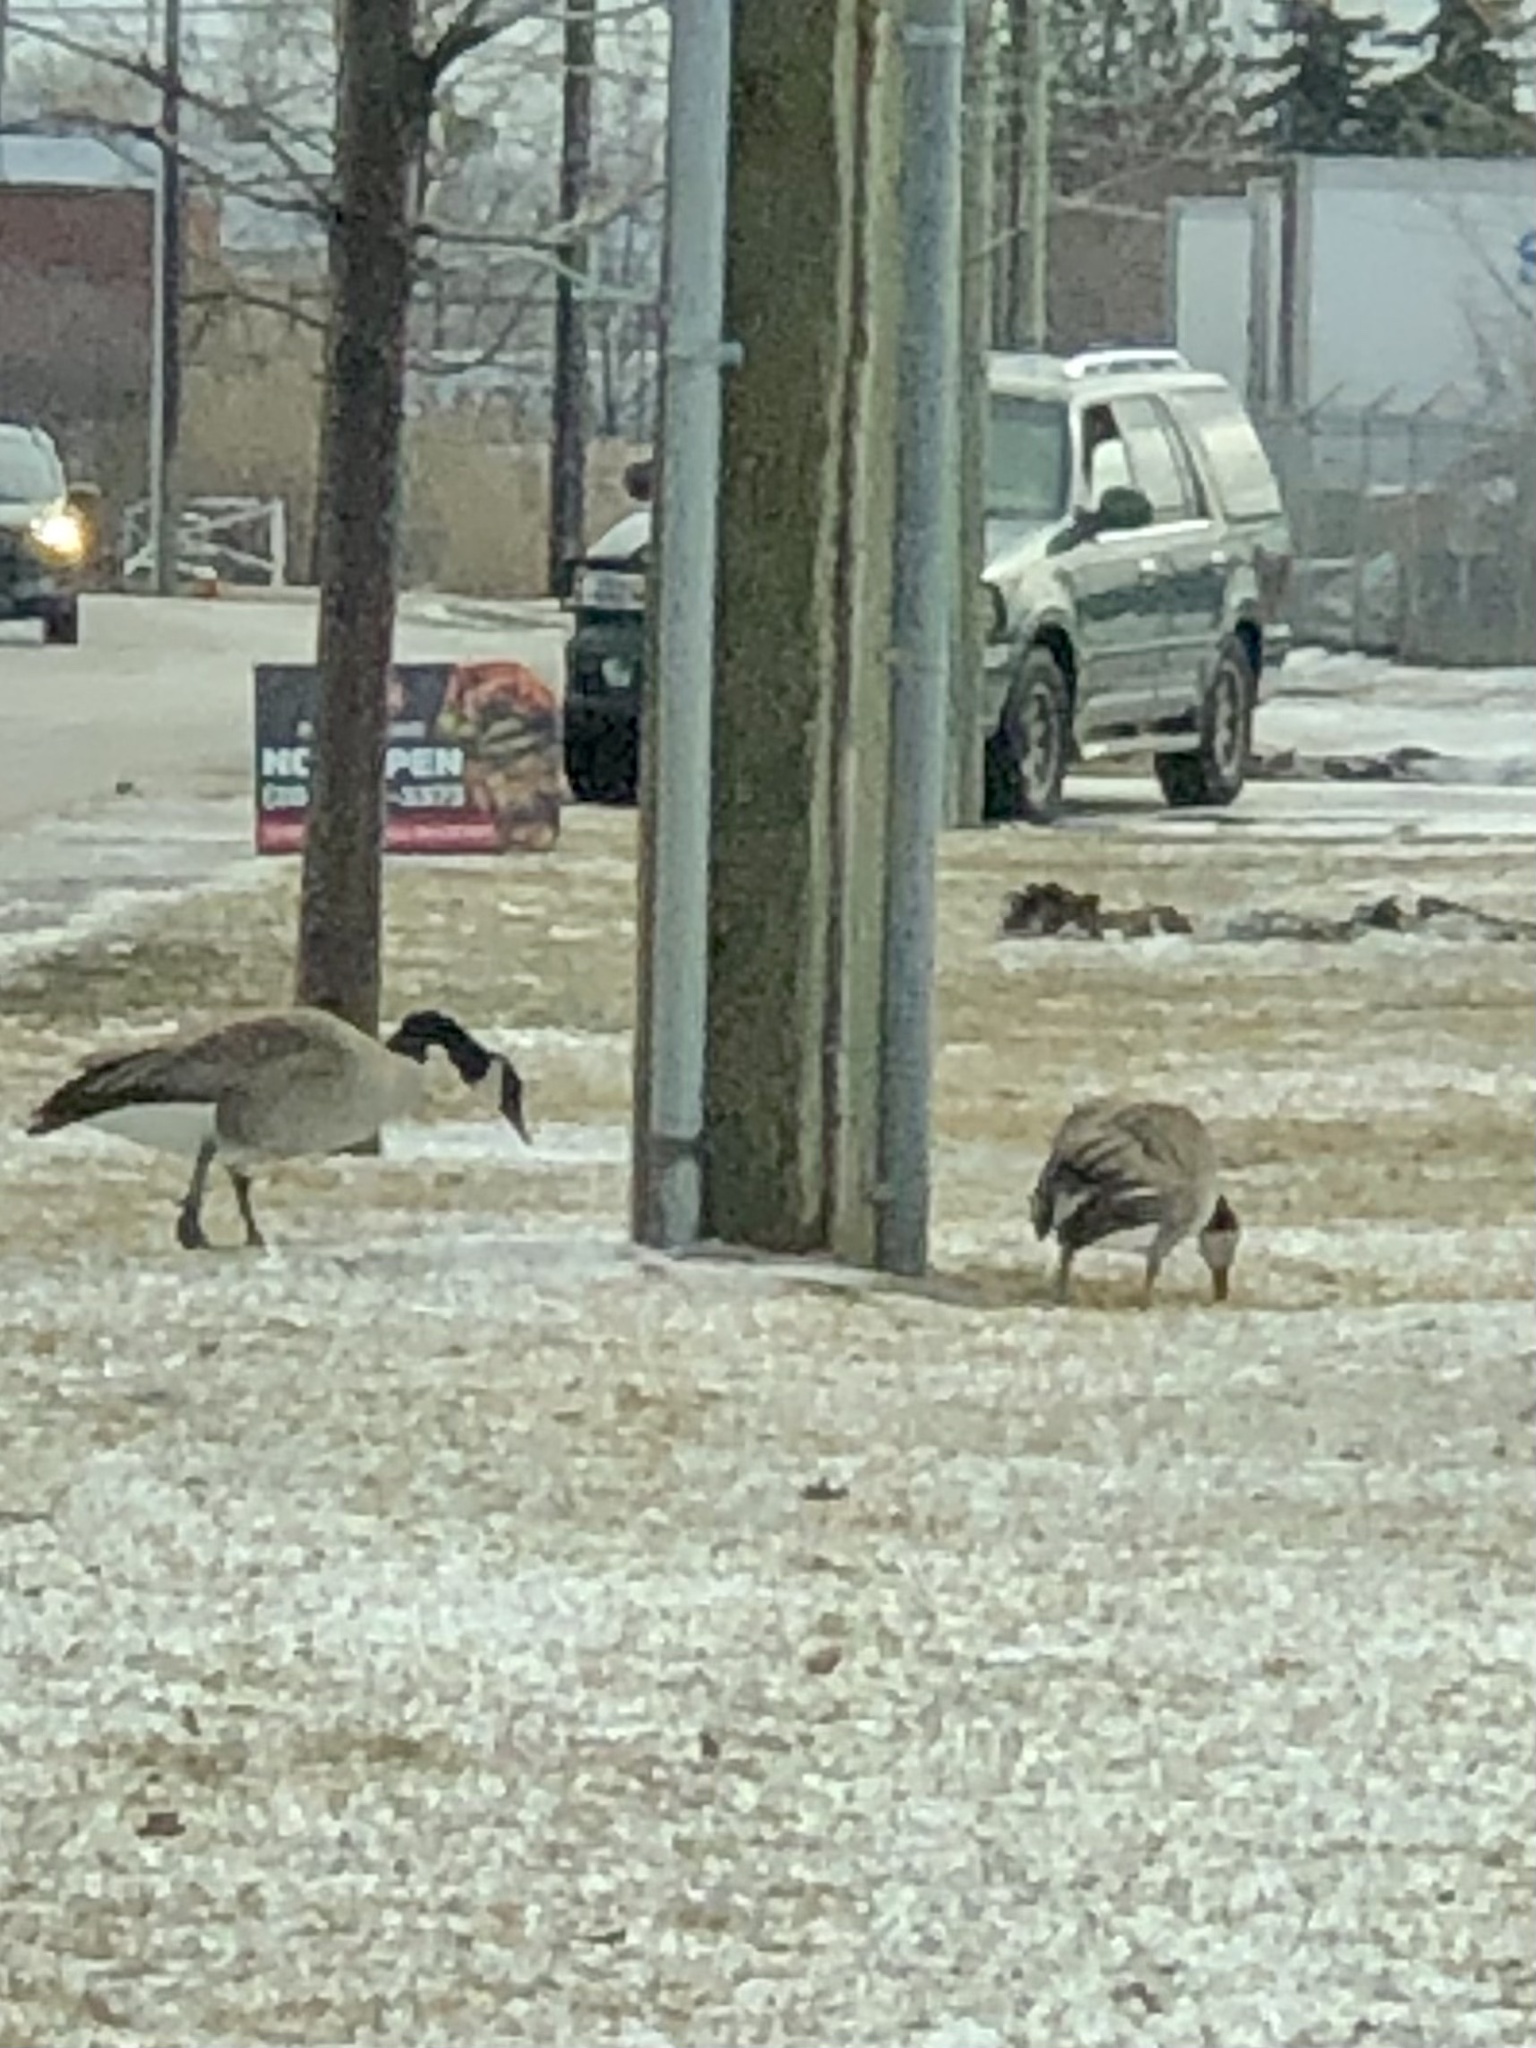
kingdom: Animalia
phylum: Chordata
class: Aves
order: Anseriformes
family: Anatidae
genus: Branta
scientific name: Branta canadensis
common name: Canada goose
